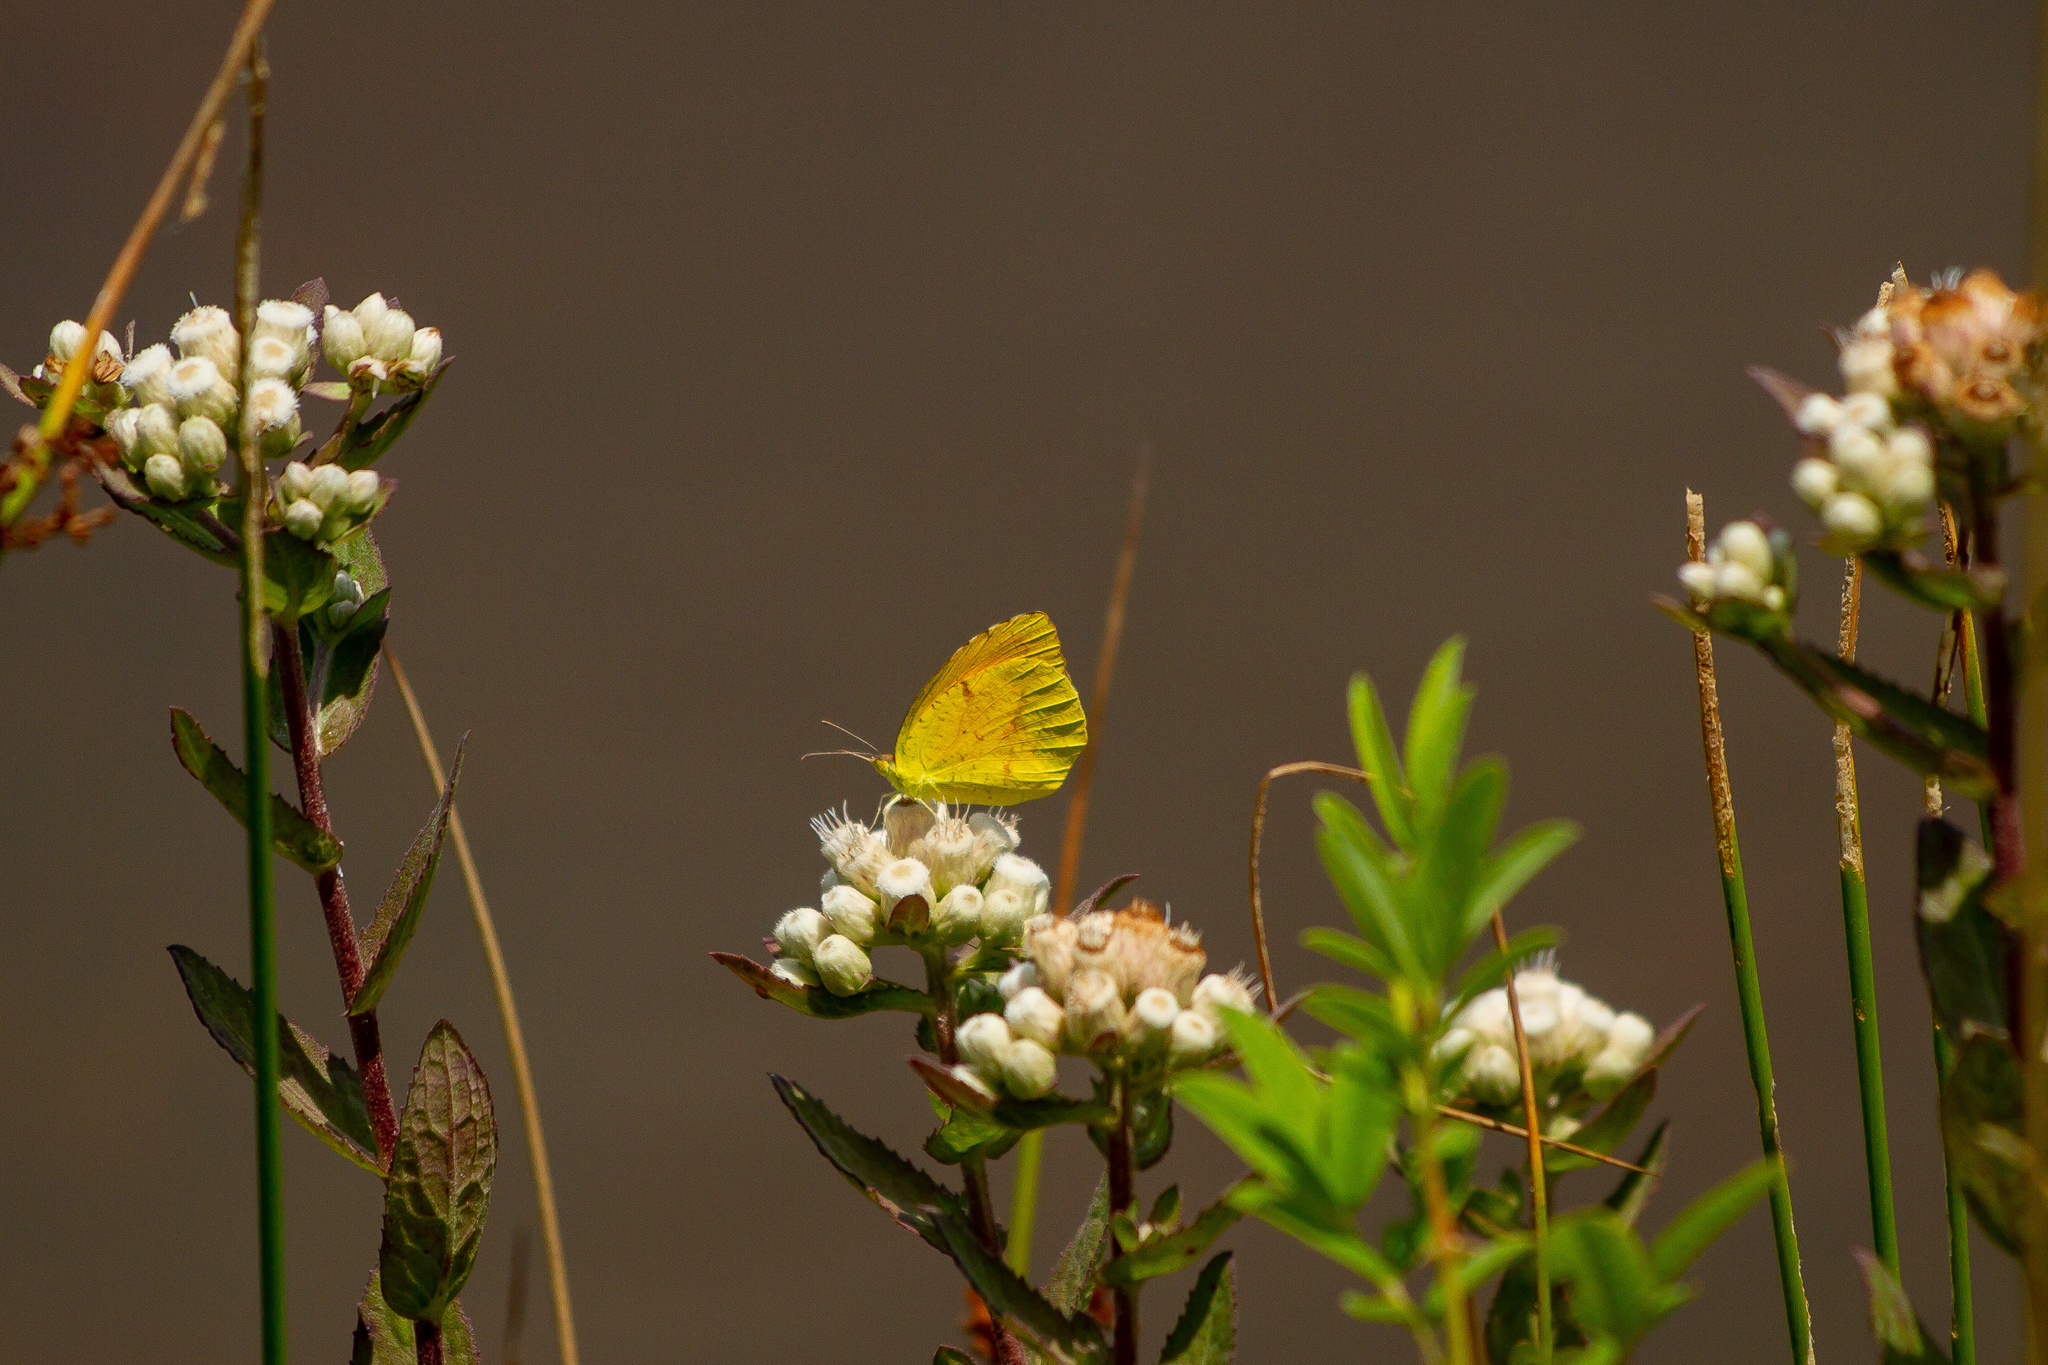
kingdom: Animalia
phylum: Arthropoda
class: Insecta
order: Lepidoptera
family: Pieridae
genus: Abaeis
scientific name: Abaeis nicippe
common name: Sleepy orange
